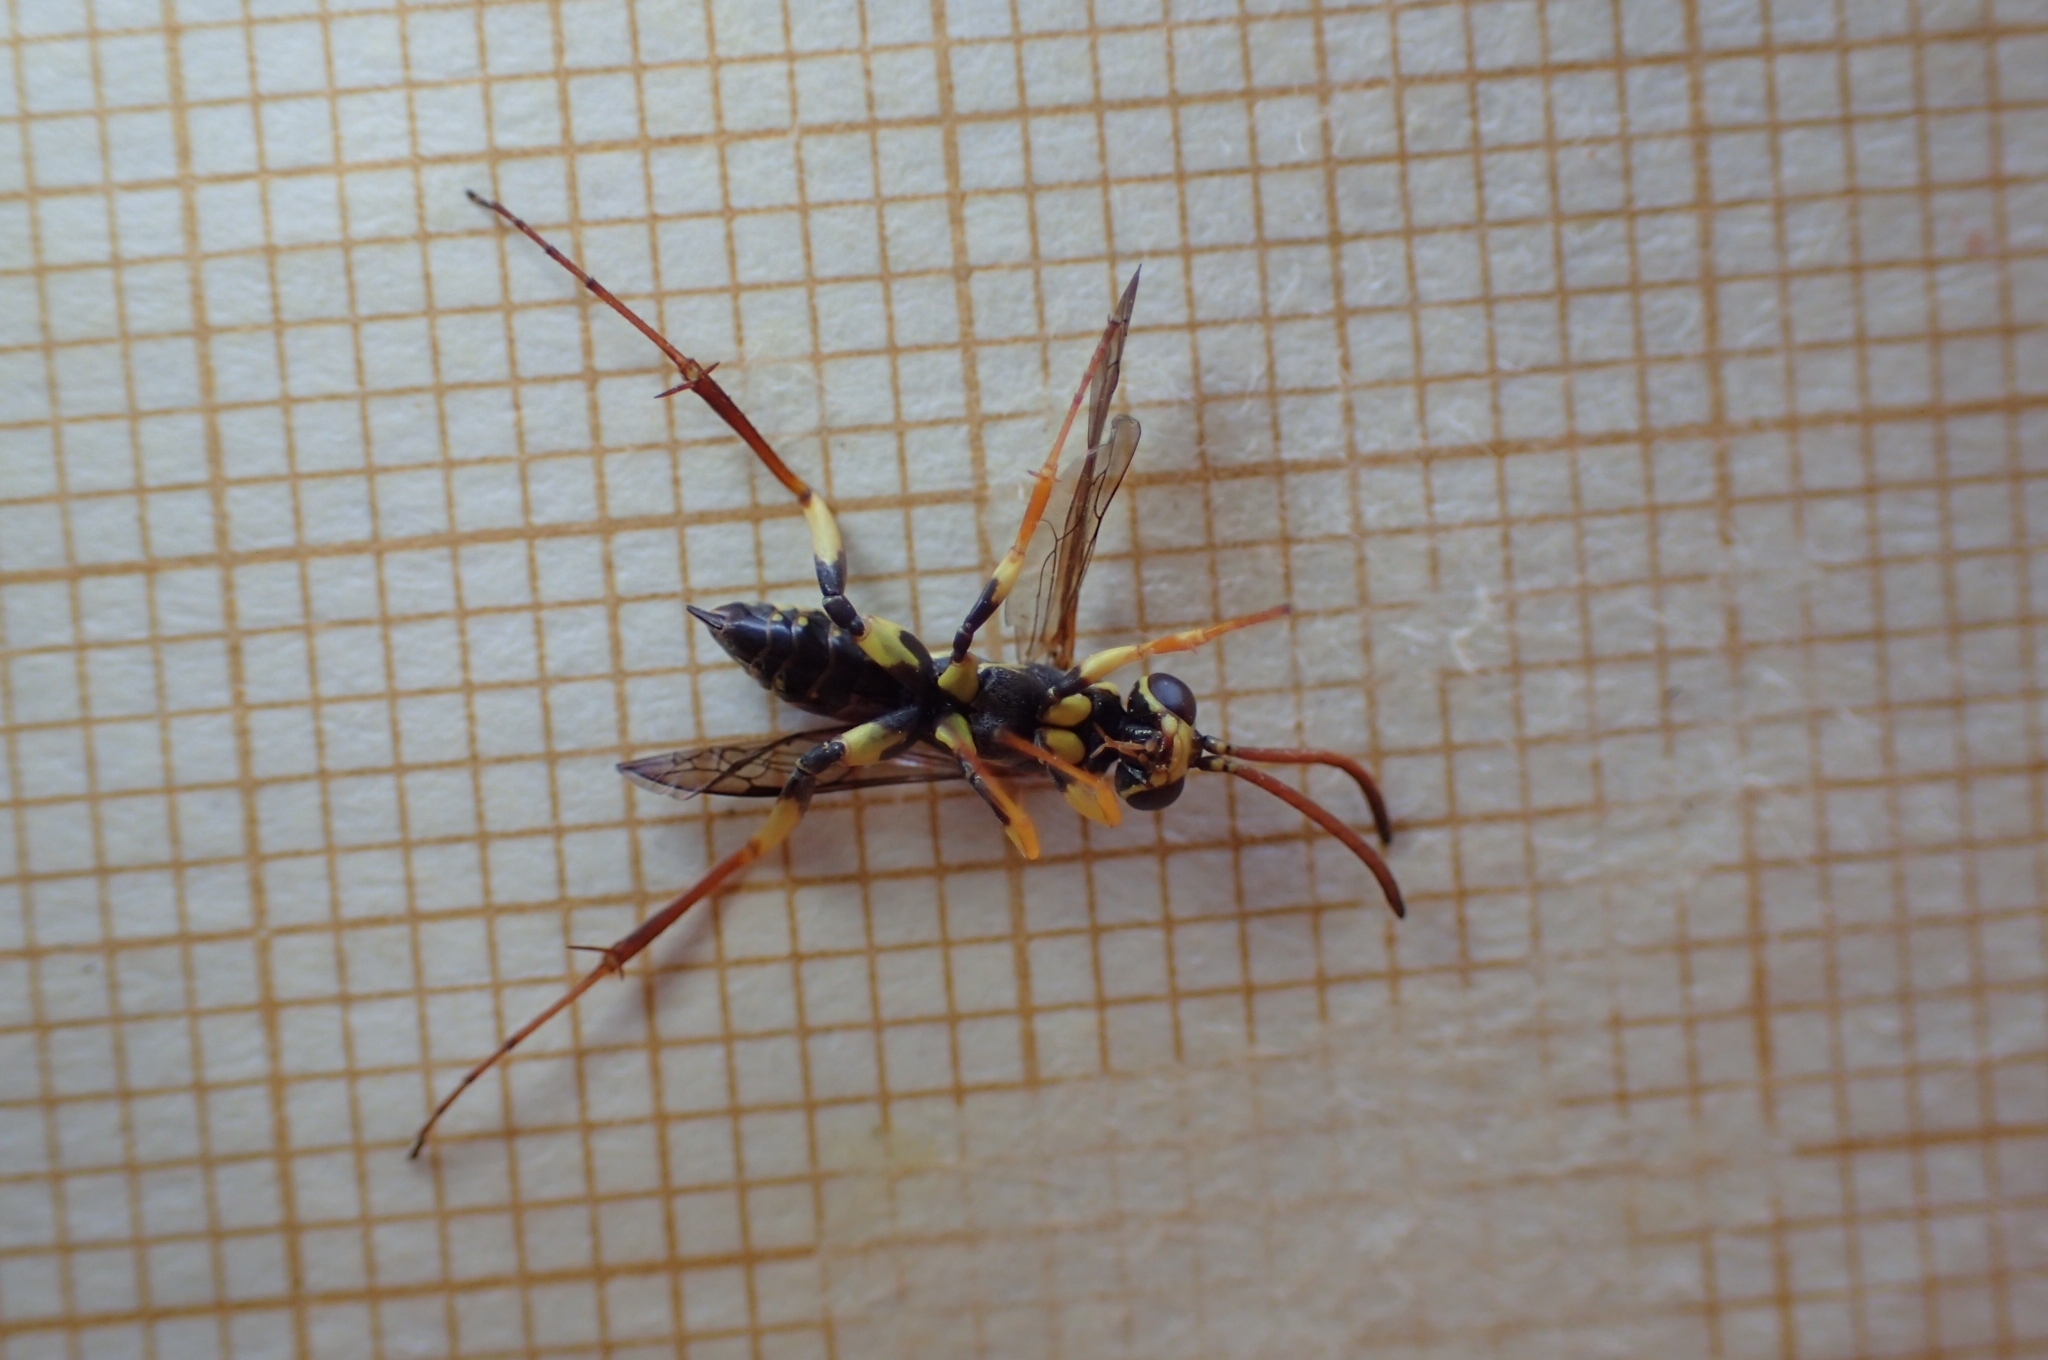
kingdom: Animalia
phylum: Arthropoda
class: Insecta
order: Hymenoptera
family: Pompilidae
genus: Ceropales
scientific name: Ceropales bipartita
